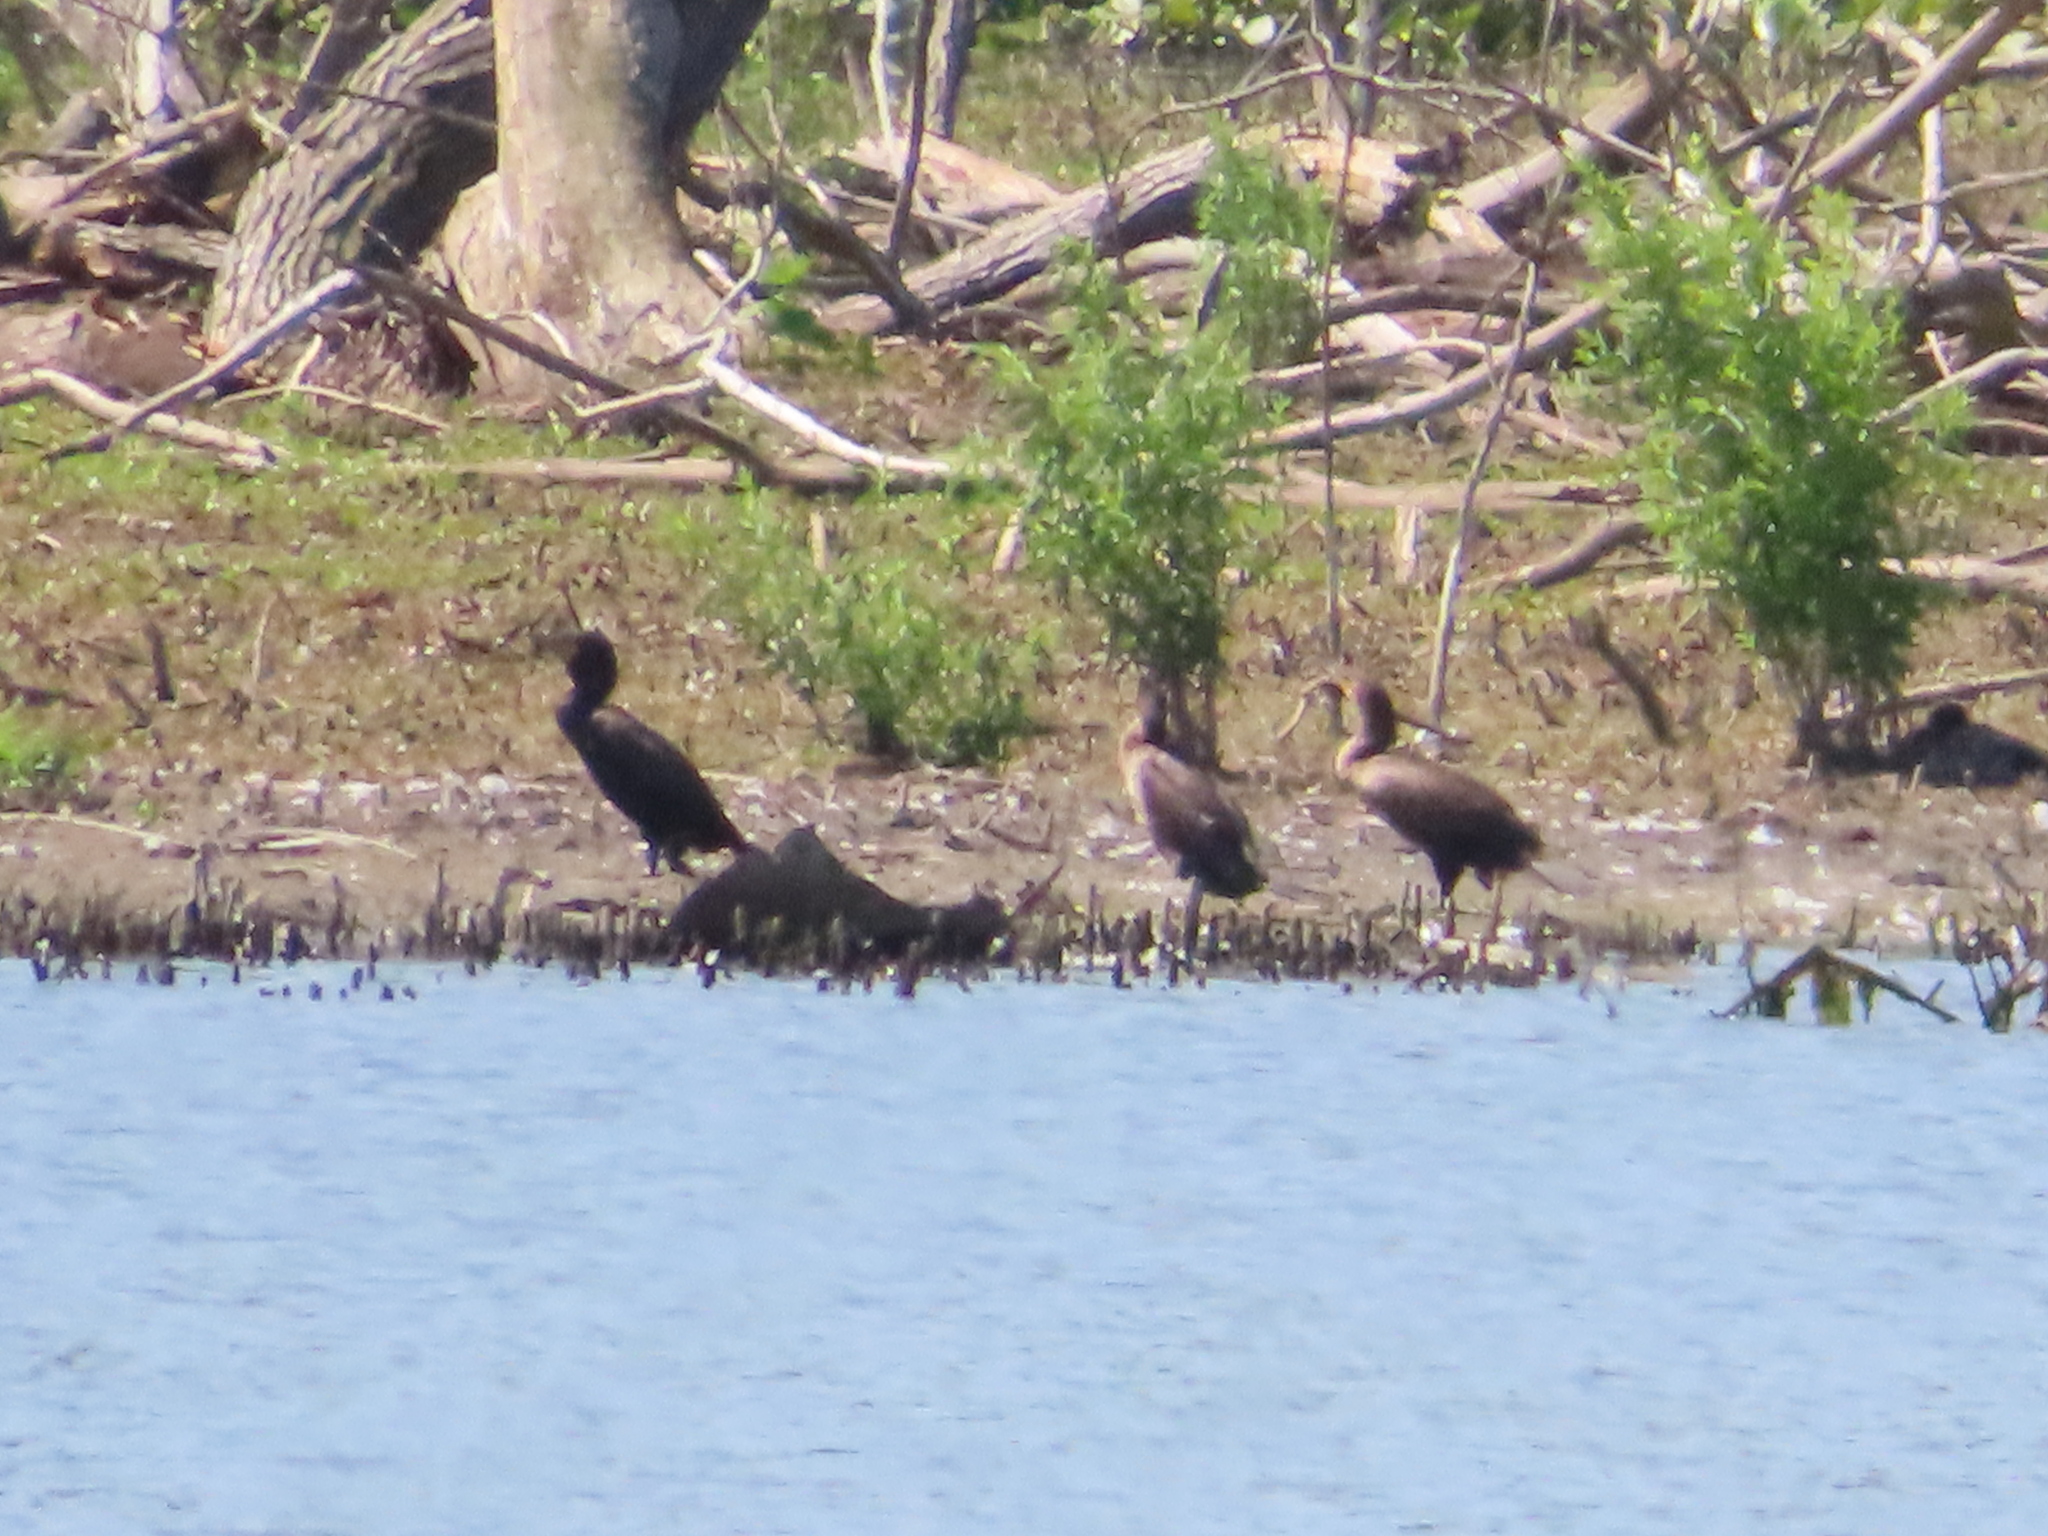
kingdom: Animalia
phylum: Chordata
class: Aves
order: Suliformes
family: Phalacrocoracidae
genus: Phalacrocorax
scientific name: Phalacrocorax auritus
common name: Double-crested cormorant
